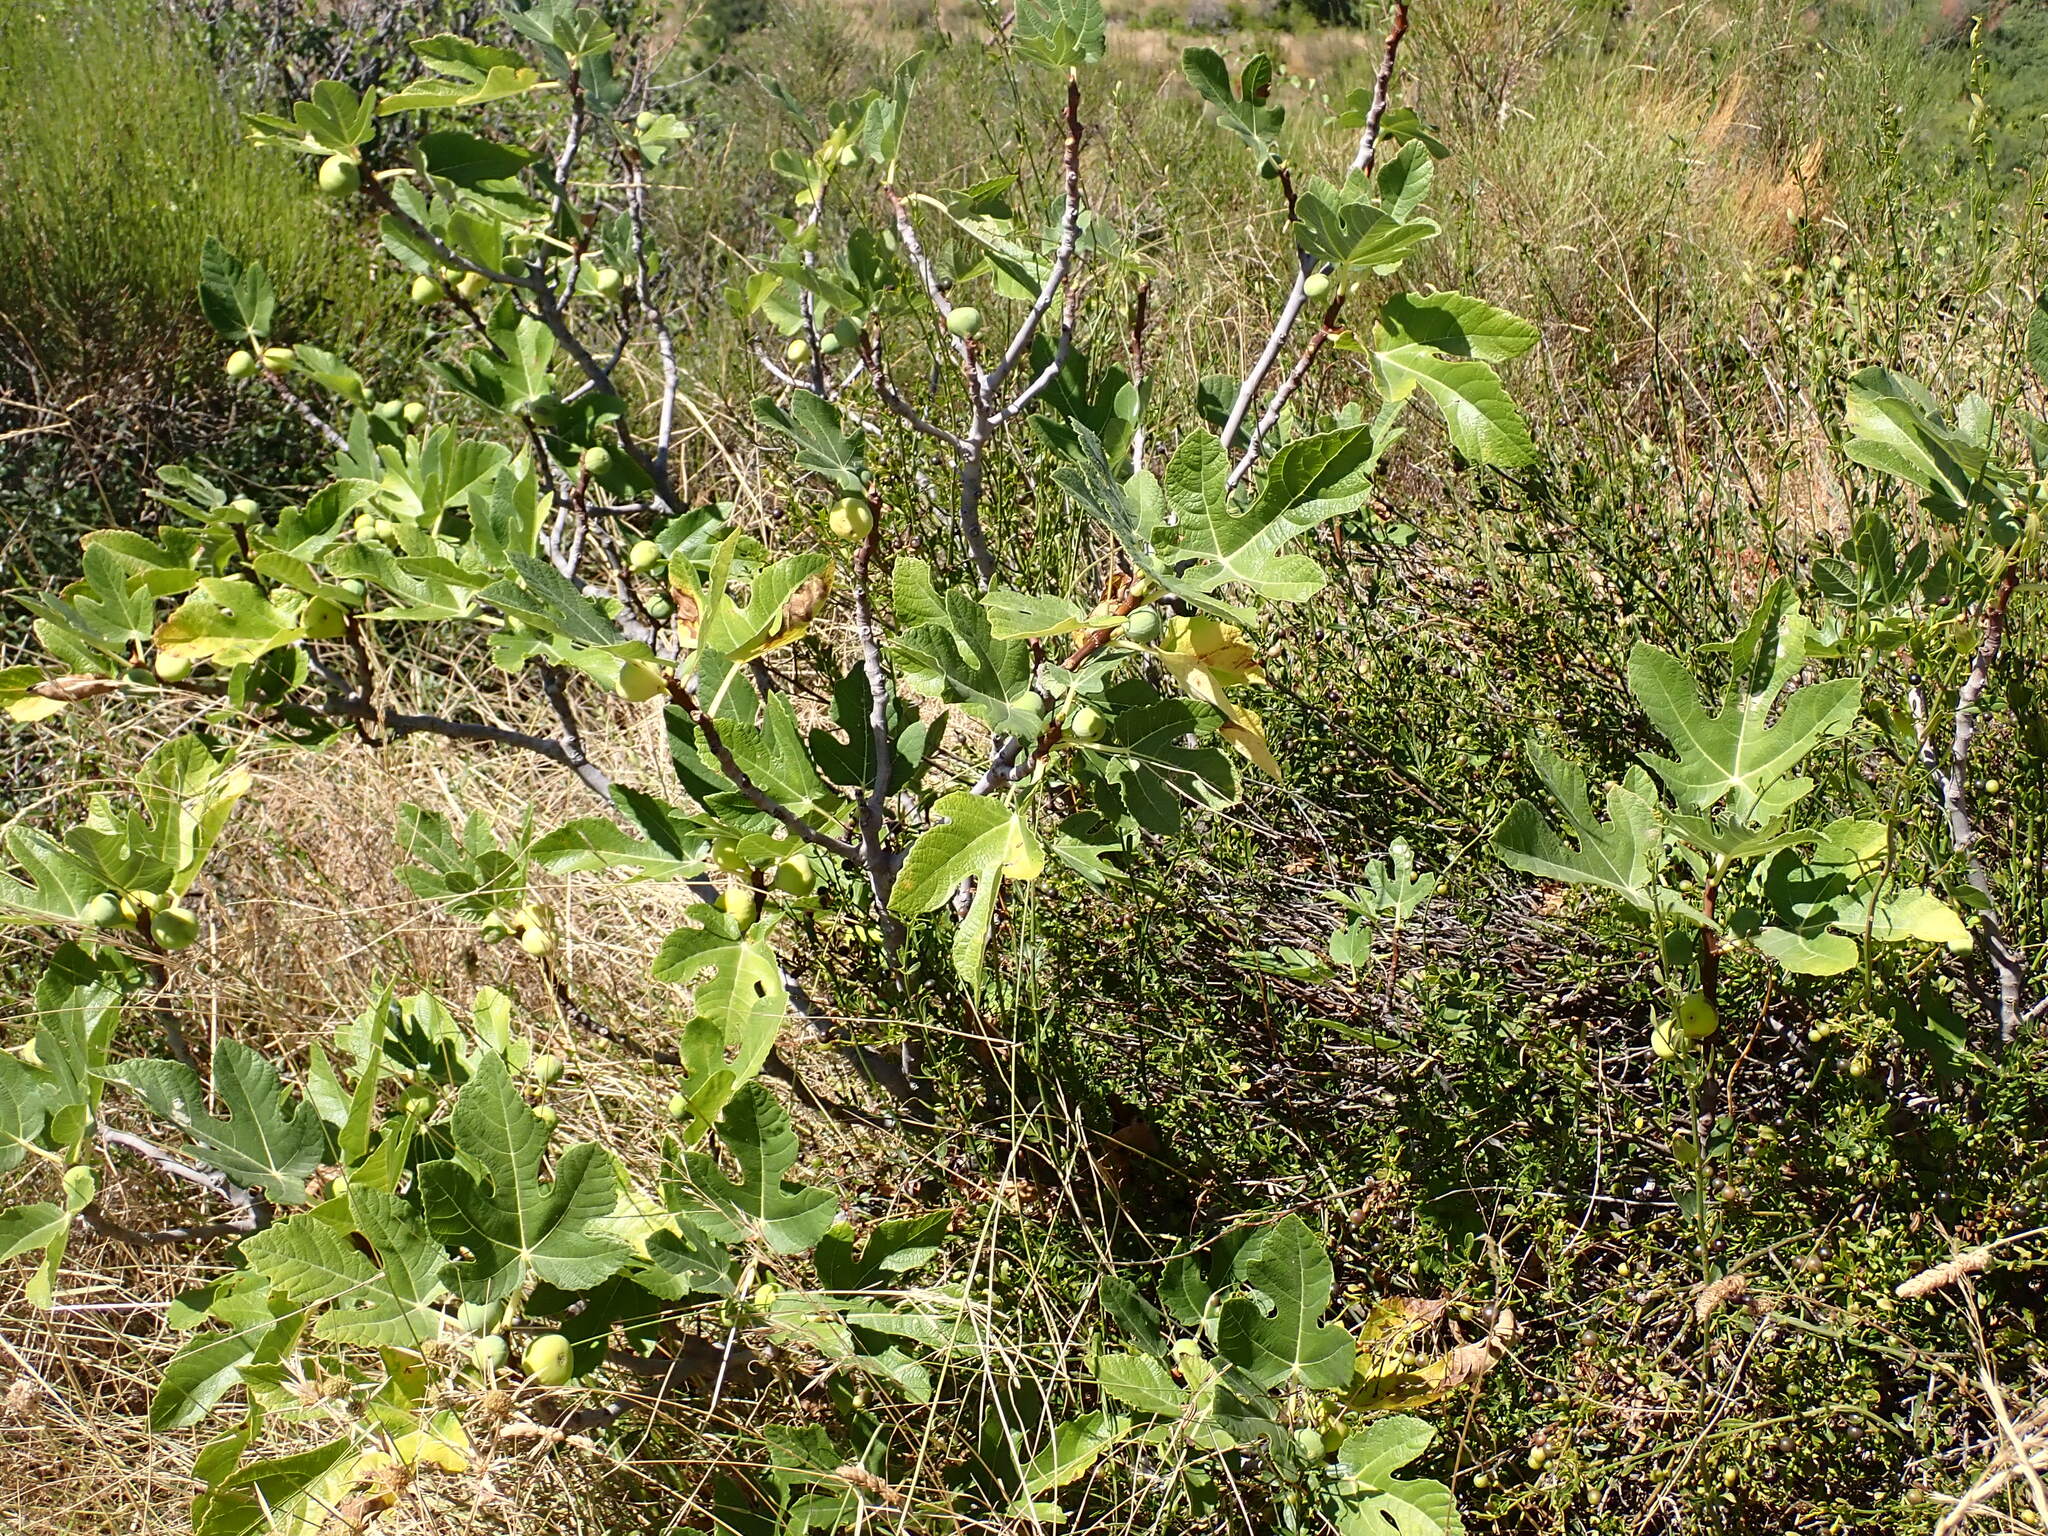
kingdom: Plantae
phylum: Tracheophyta
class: Magnoliopsida
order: Rosales
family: Moraceae
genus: Ficus
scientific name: Ficus carica
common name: Fig
